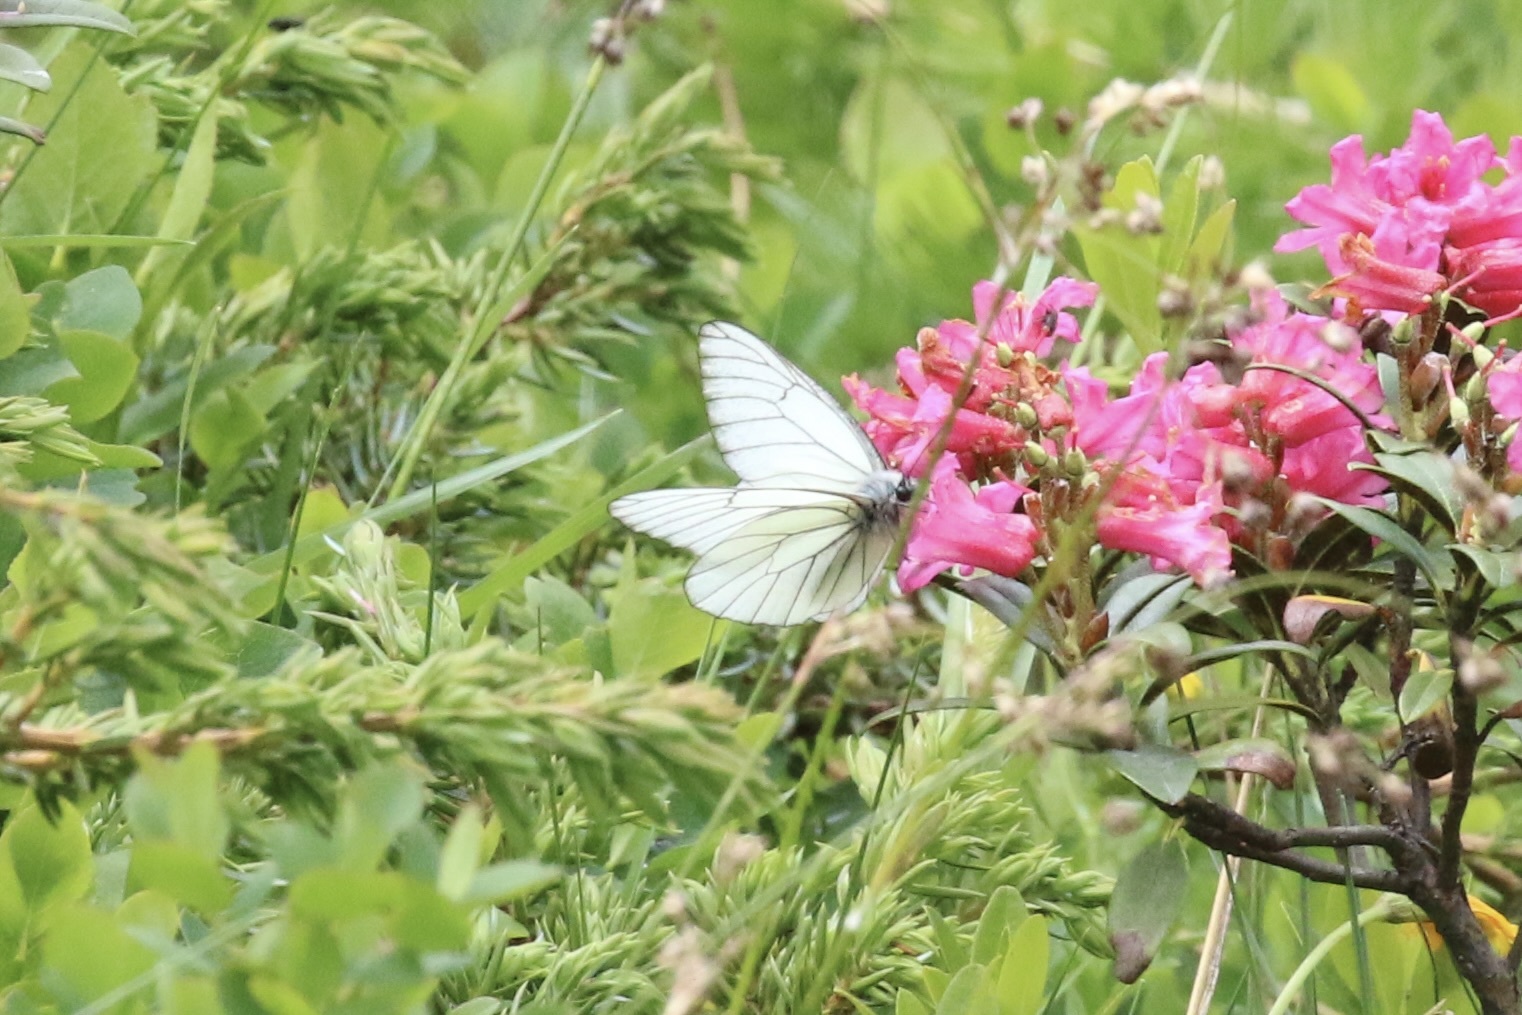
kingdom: Animalia
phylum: Arthropoda
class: Insecta
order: Lepidoptera
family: Pieridae
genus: Aporia
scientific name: Aporia crataegi
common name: Black-veined white
